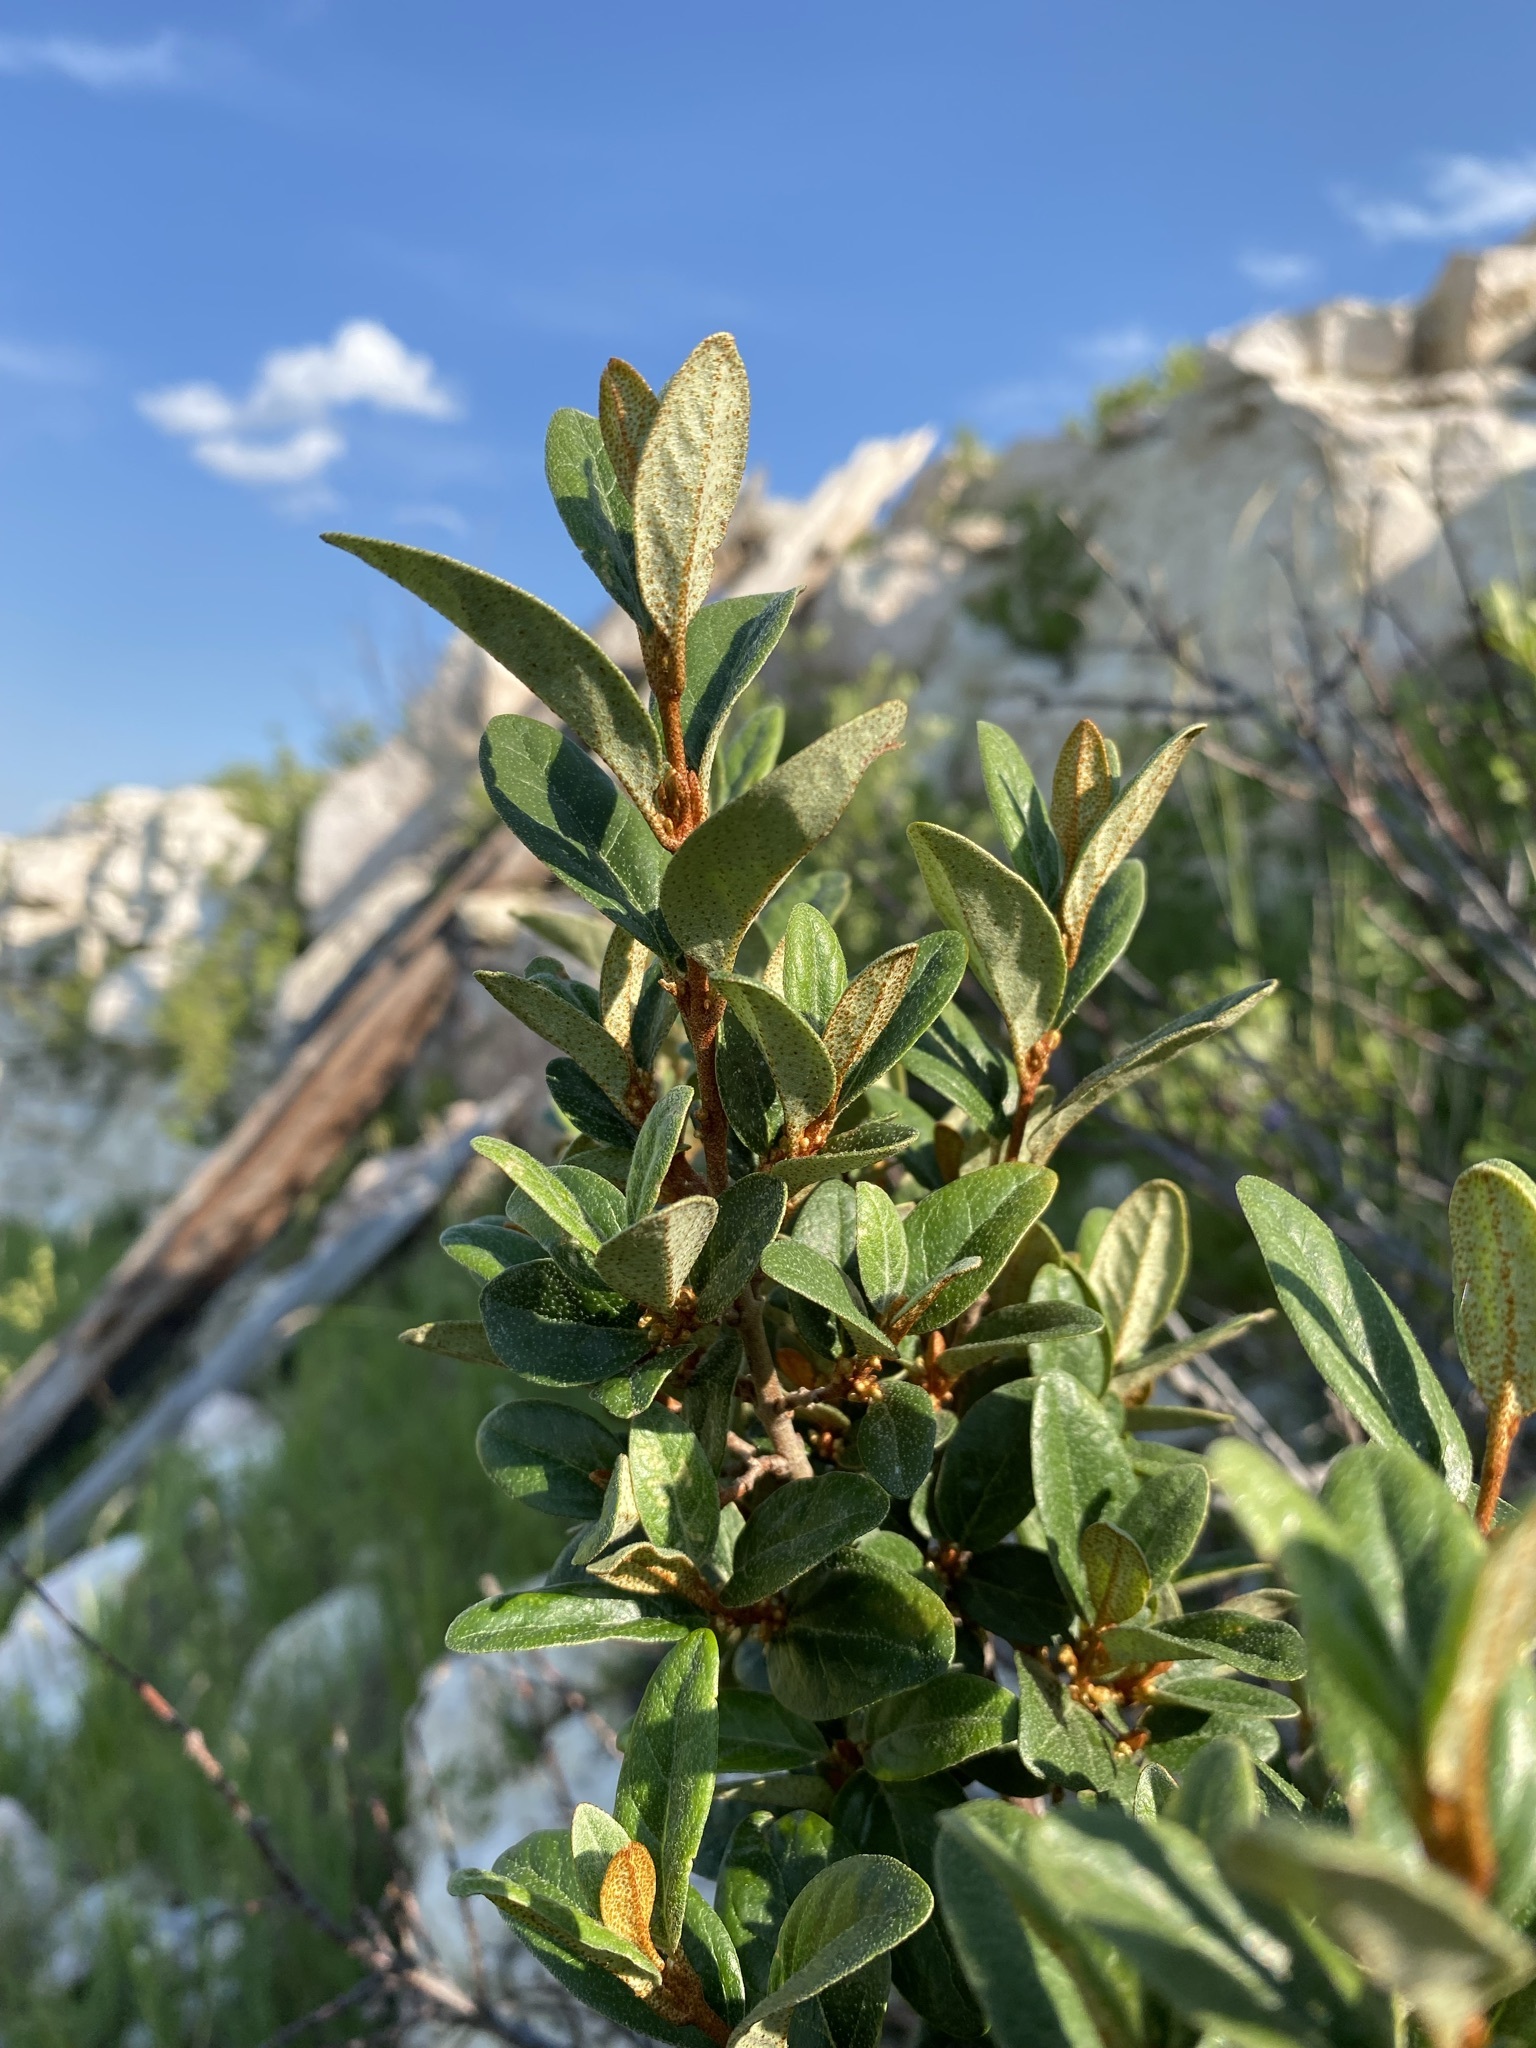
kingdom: Plantae
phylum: Tracheophyta
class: Magnoliopsida
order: Rosales
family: Elaeagnaceae
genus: Shepherdia
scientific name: Shepherdia canadensis
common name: Soapberry
